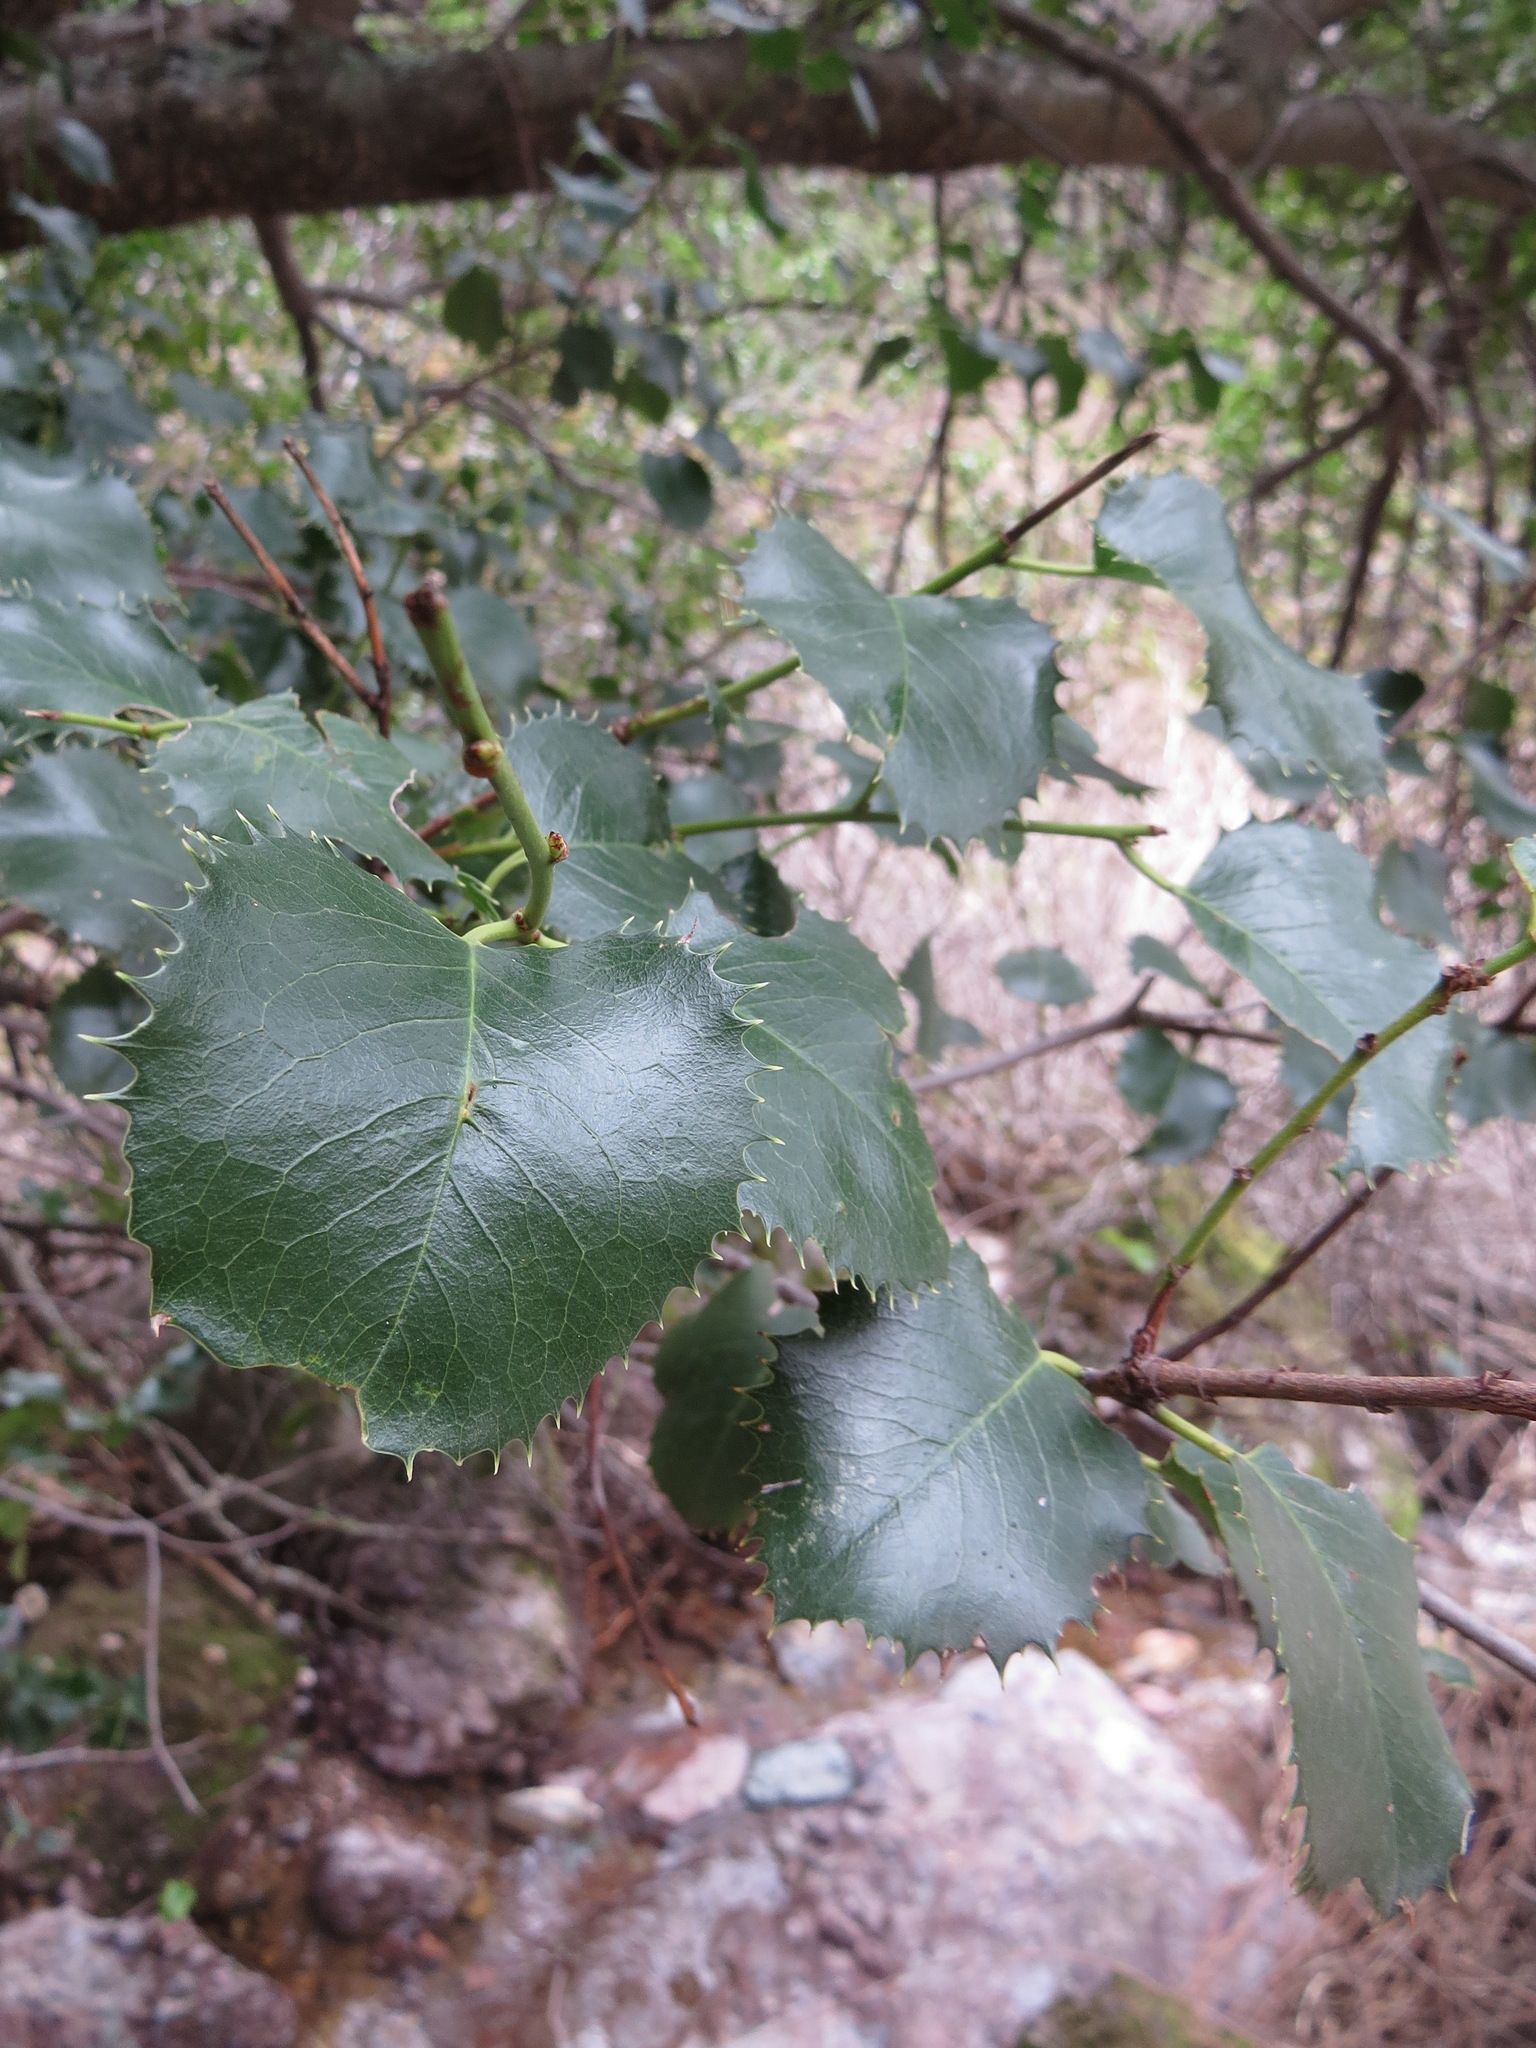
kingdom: Plantae
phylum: Tracheophyta
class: Magnoliopsida
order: Rosales
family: Rosaceae
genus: Prunus
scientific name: Prunus ilicifolia
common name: Hollyleaf cherry
